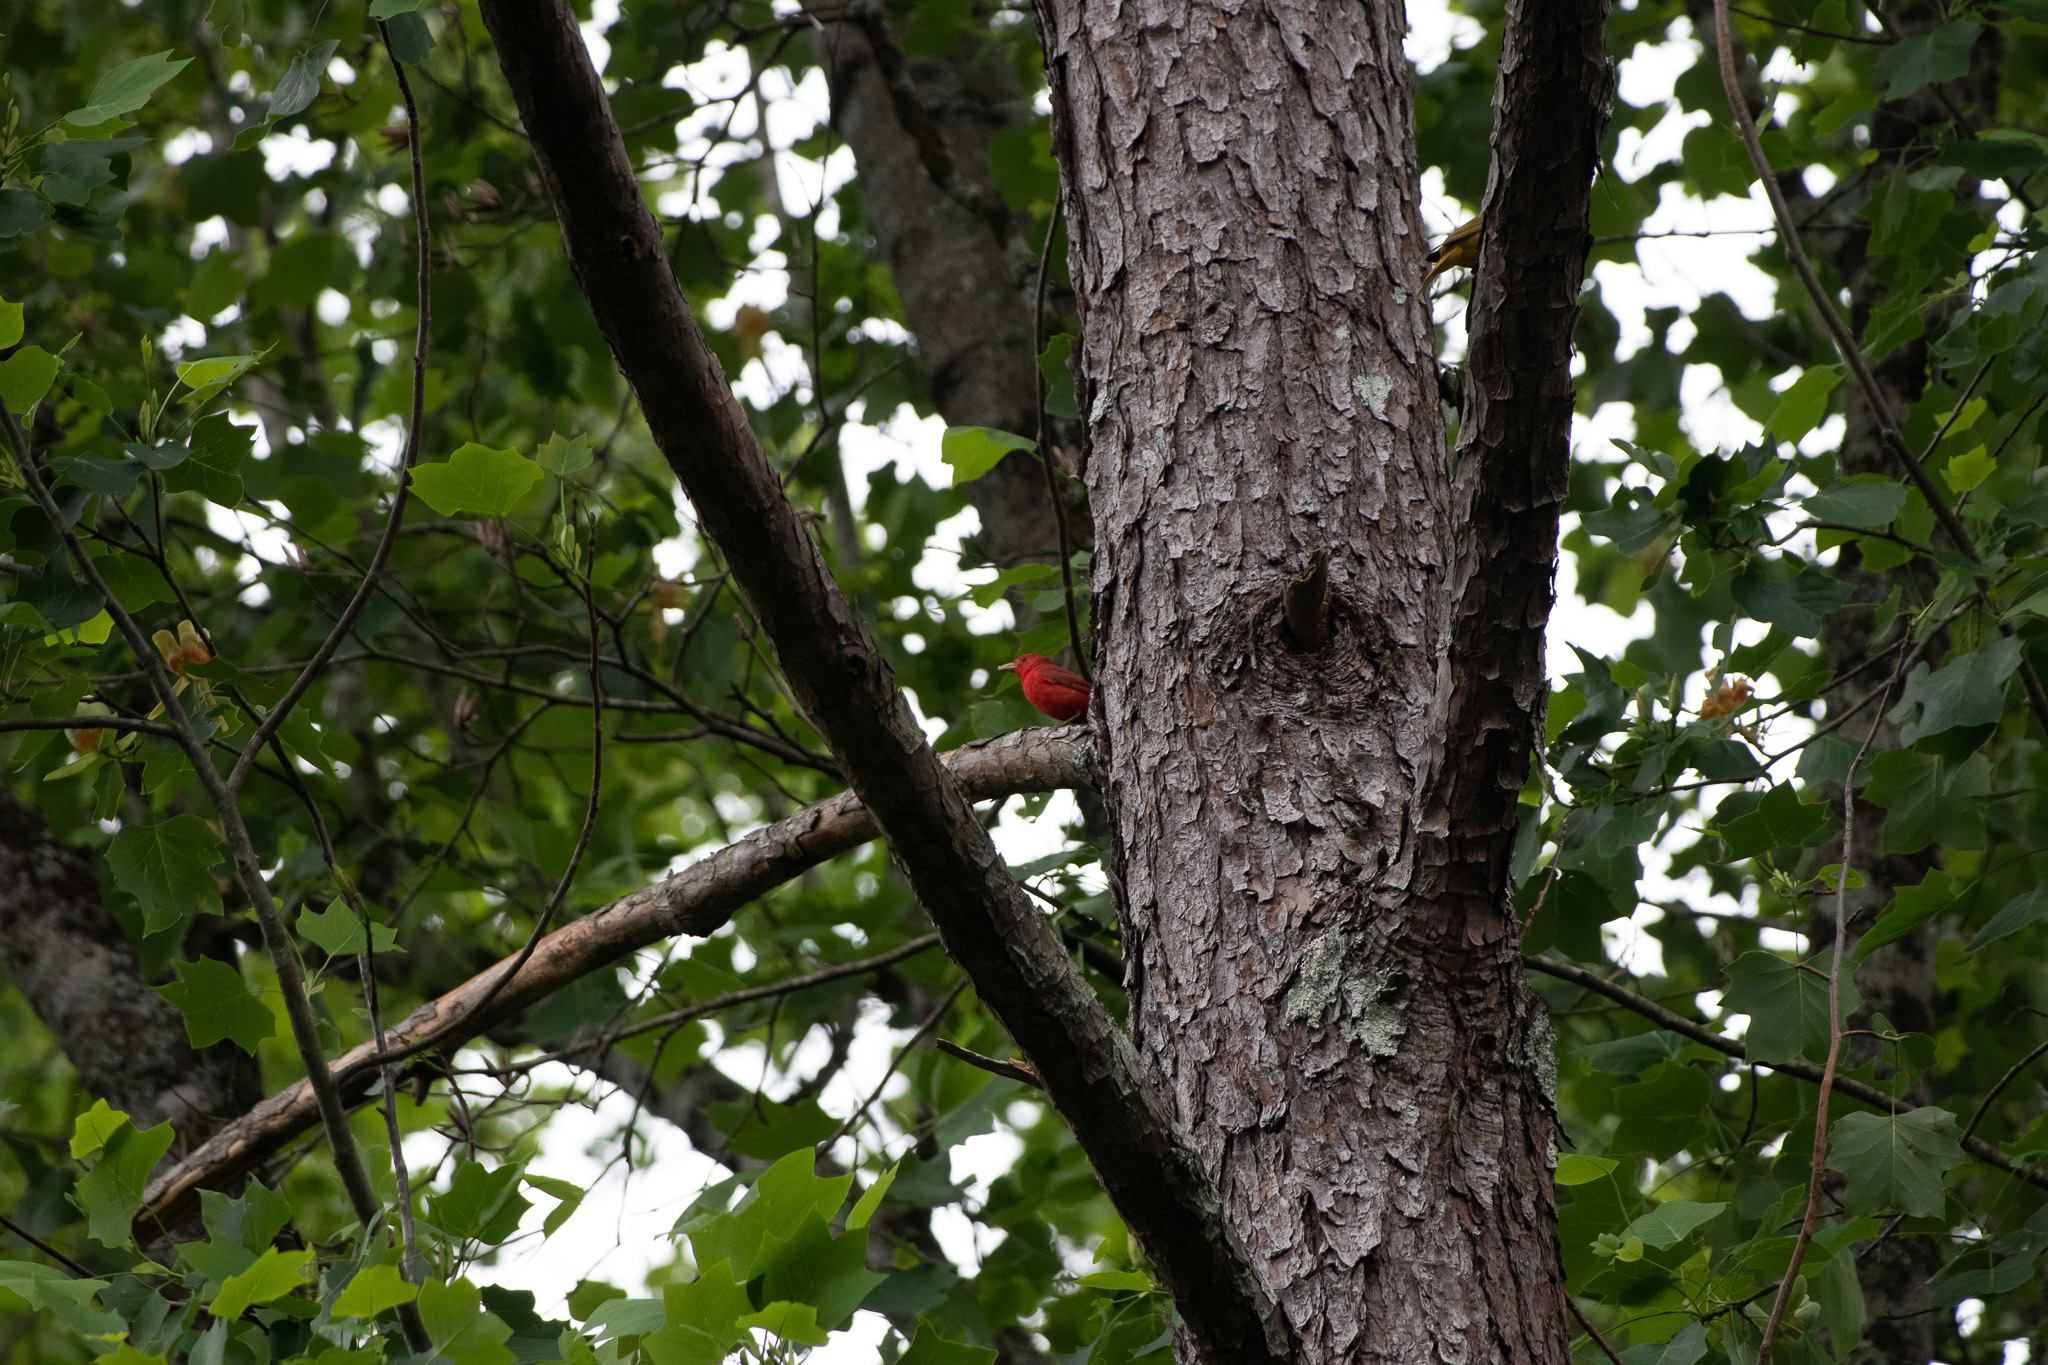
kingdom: Animalia
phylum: Chordata
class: Aves
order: Passeriformes
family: Cardinalidae
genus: Piranga
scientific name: Piranga rubra
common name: Summer tanager
